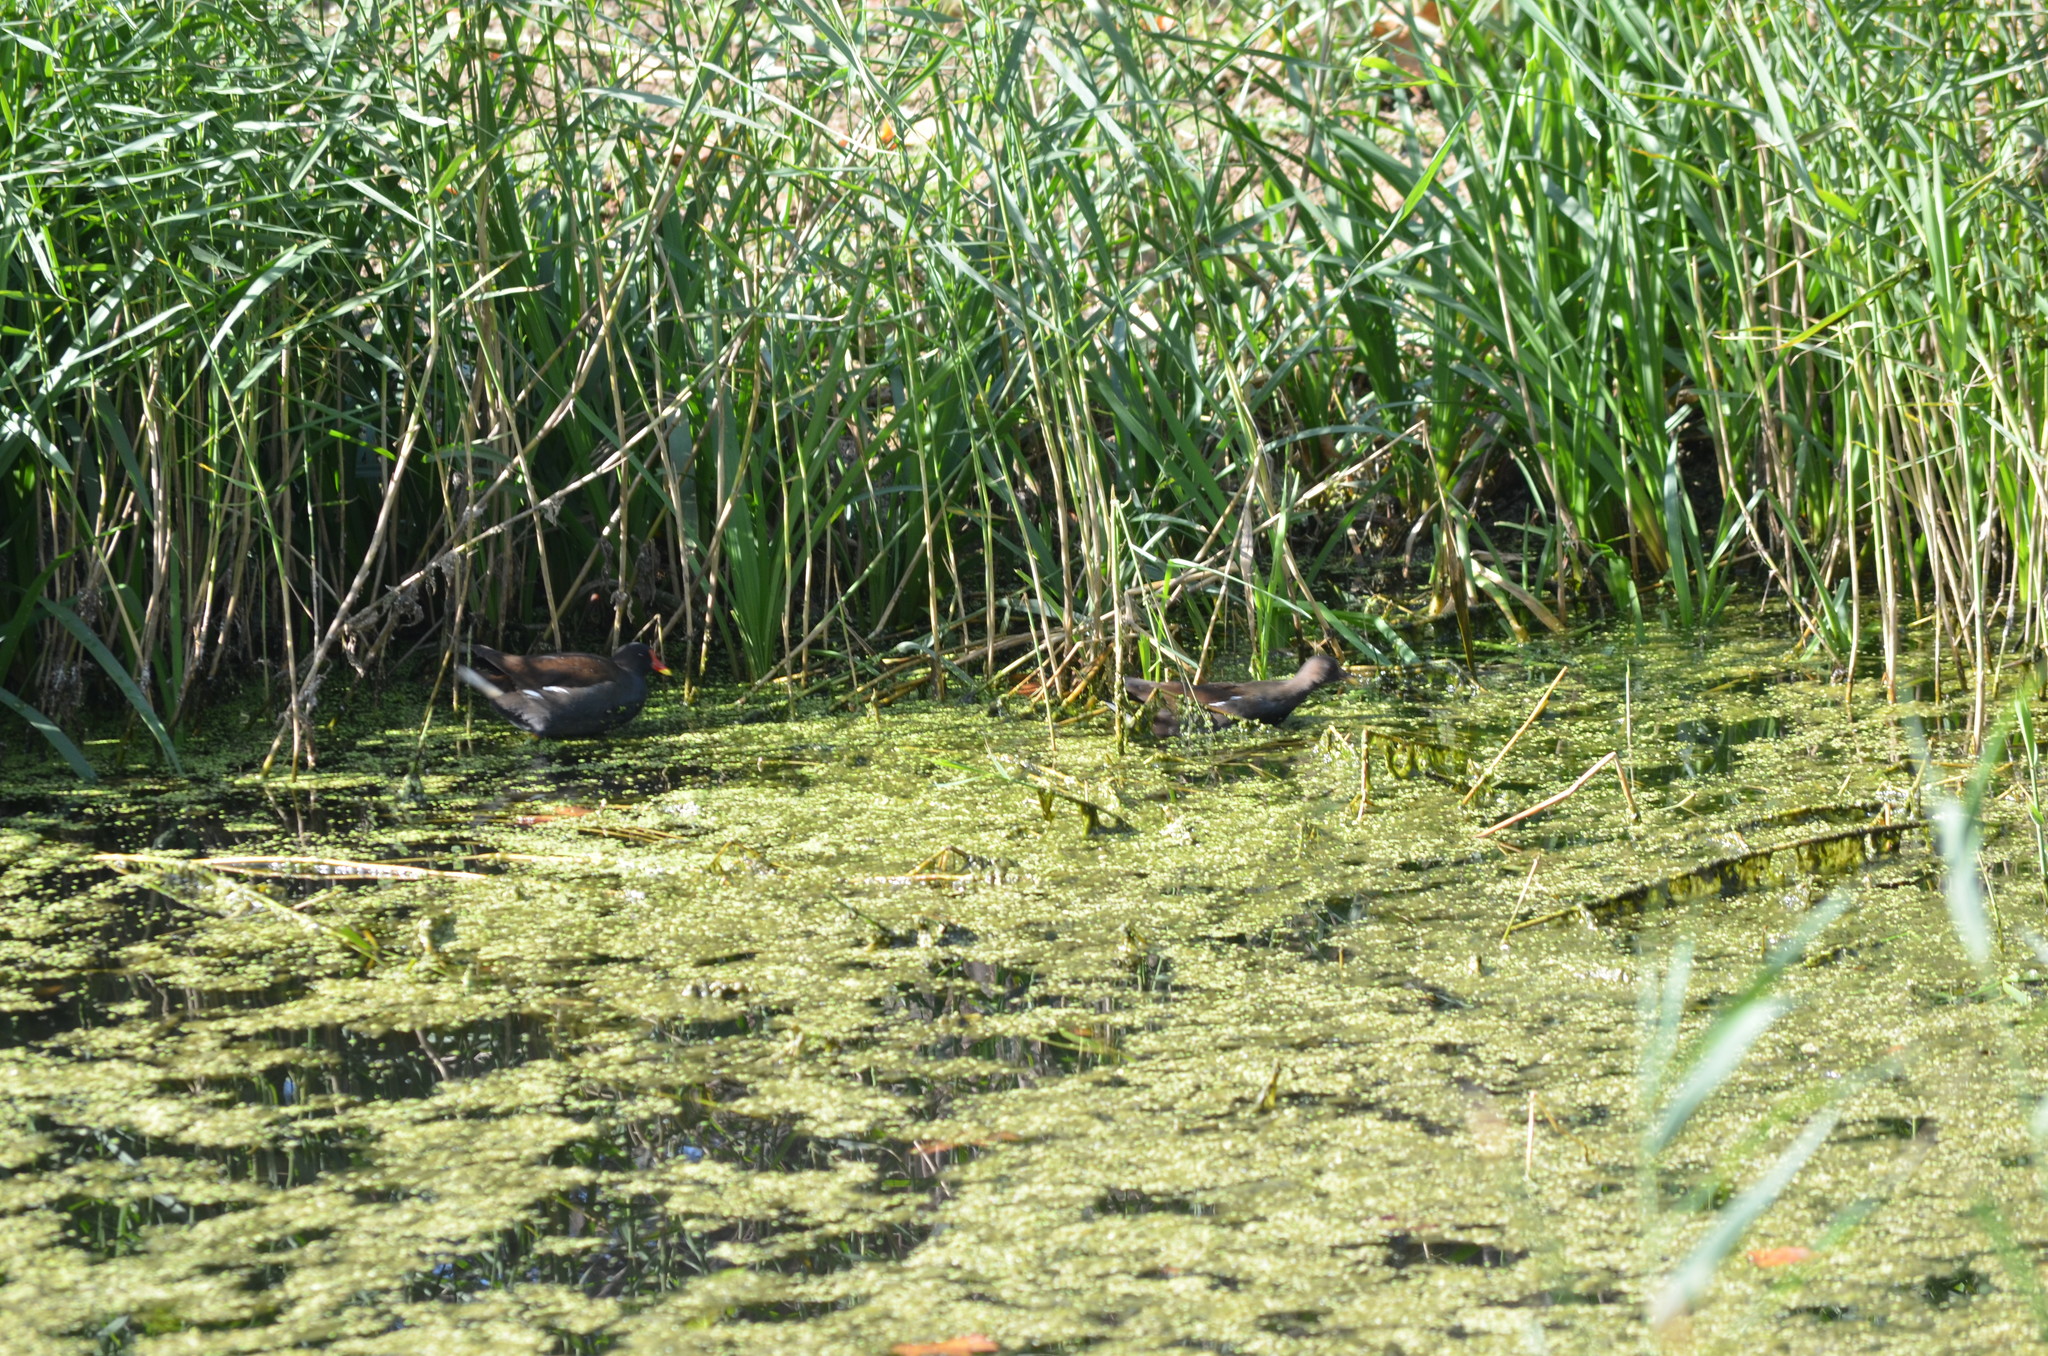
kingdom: Animalia
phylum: Chordata
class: Aves
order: Gruiformes
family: Rallidae
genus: Gallinula
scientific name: Gallinula chloropus
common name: Common moorhen
